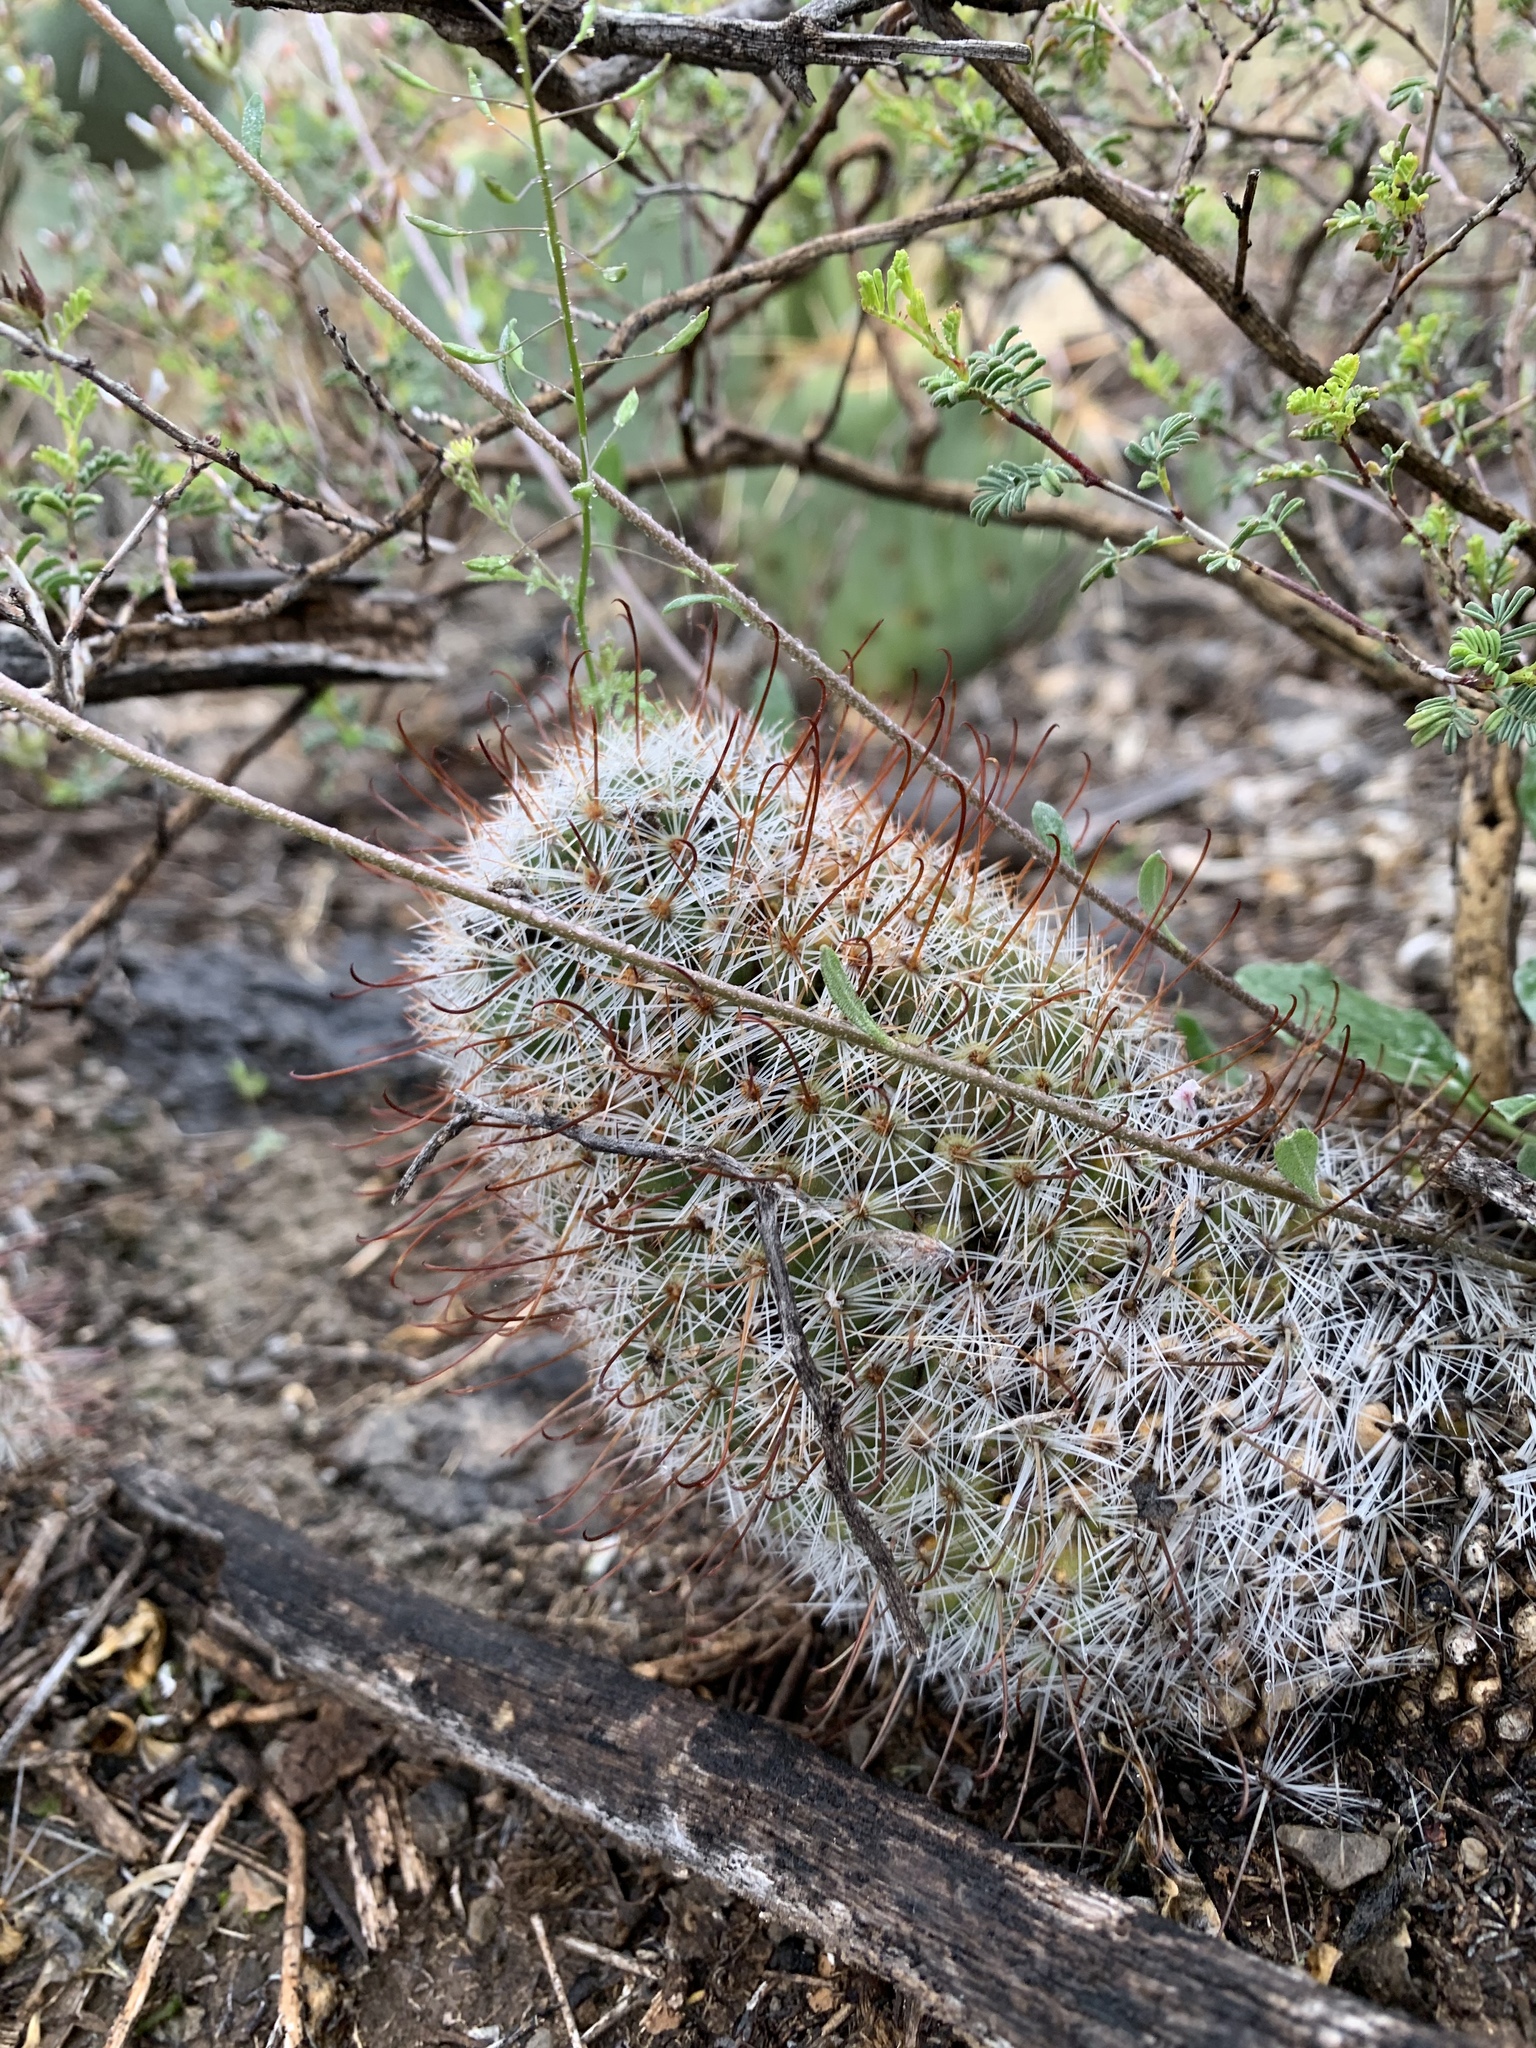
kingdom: Plantae
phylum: Tracheophyta
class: Magnoliopsida
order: Caryophyllales
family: Cactaceae
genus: Cochemiea
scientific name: Cochemiea grahamii
